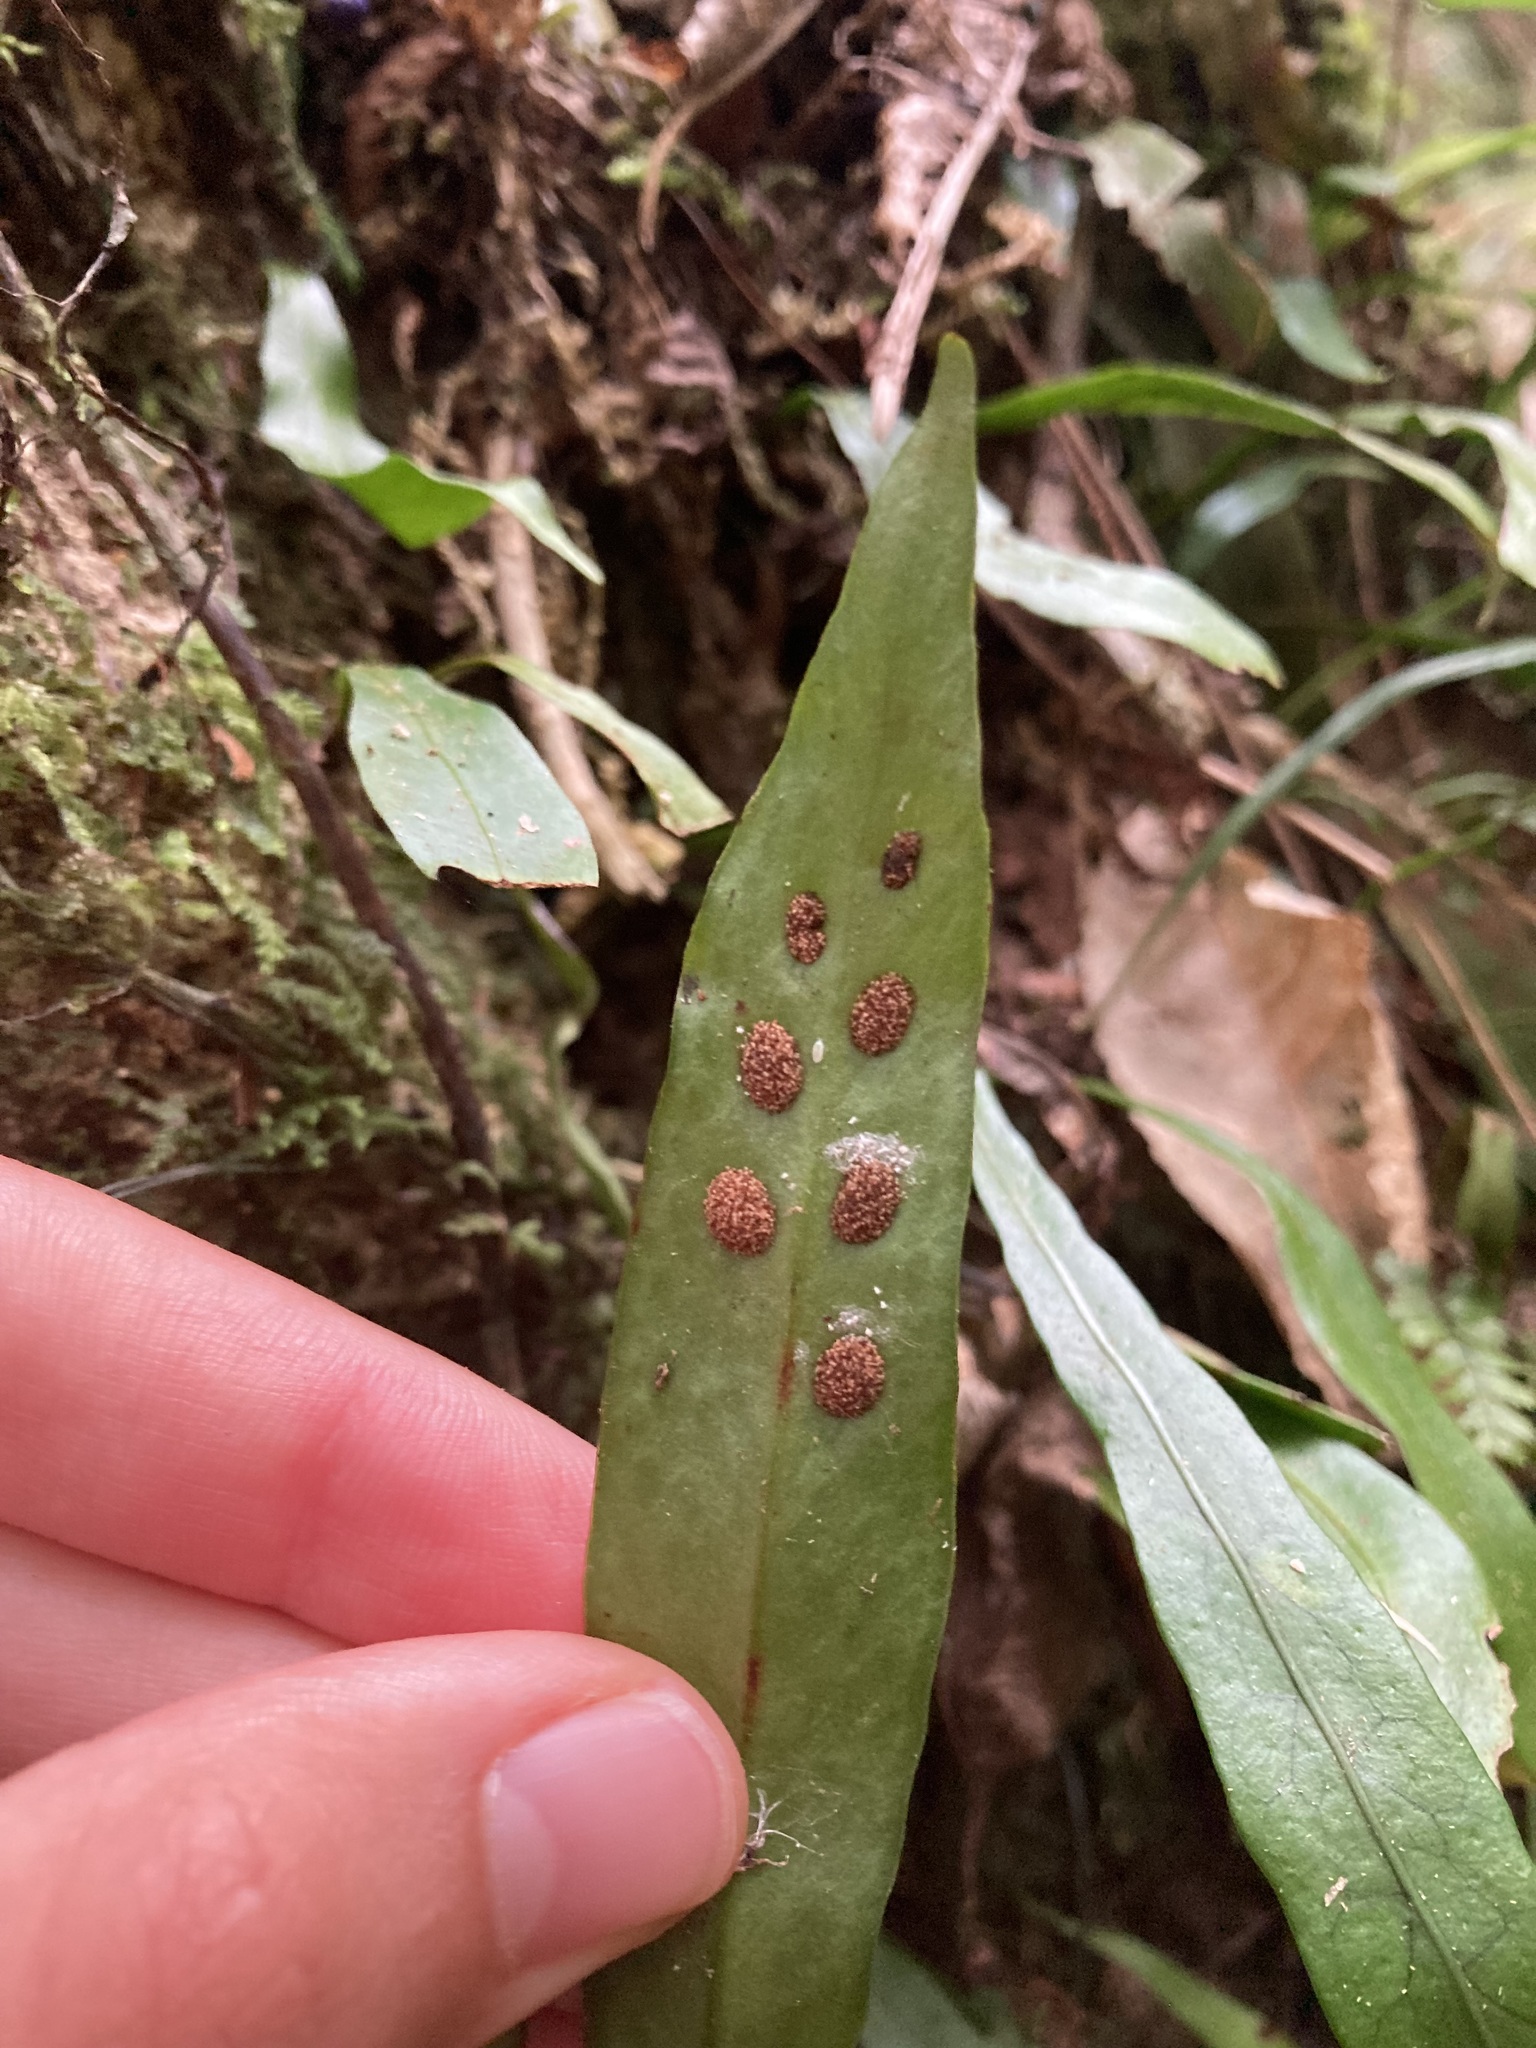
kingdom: Plantae
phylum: Tracheophyta
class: Polypodiopsida
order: Polypodiales
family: Polypodiaceae
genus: Loxogramme
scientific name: Loxogramme dictyopteris
